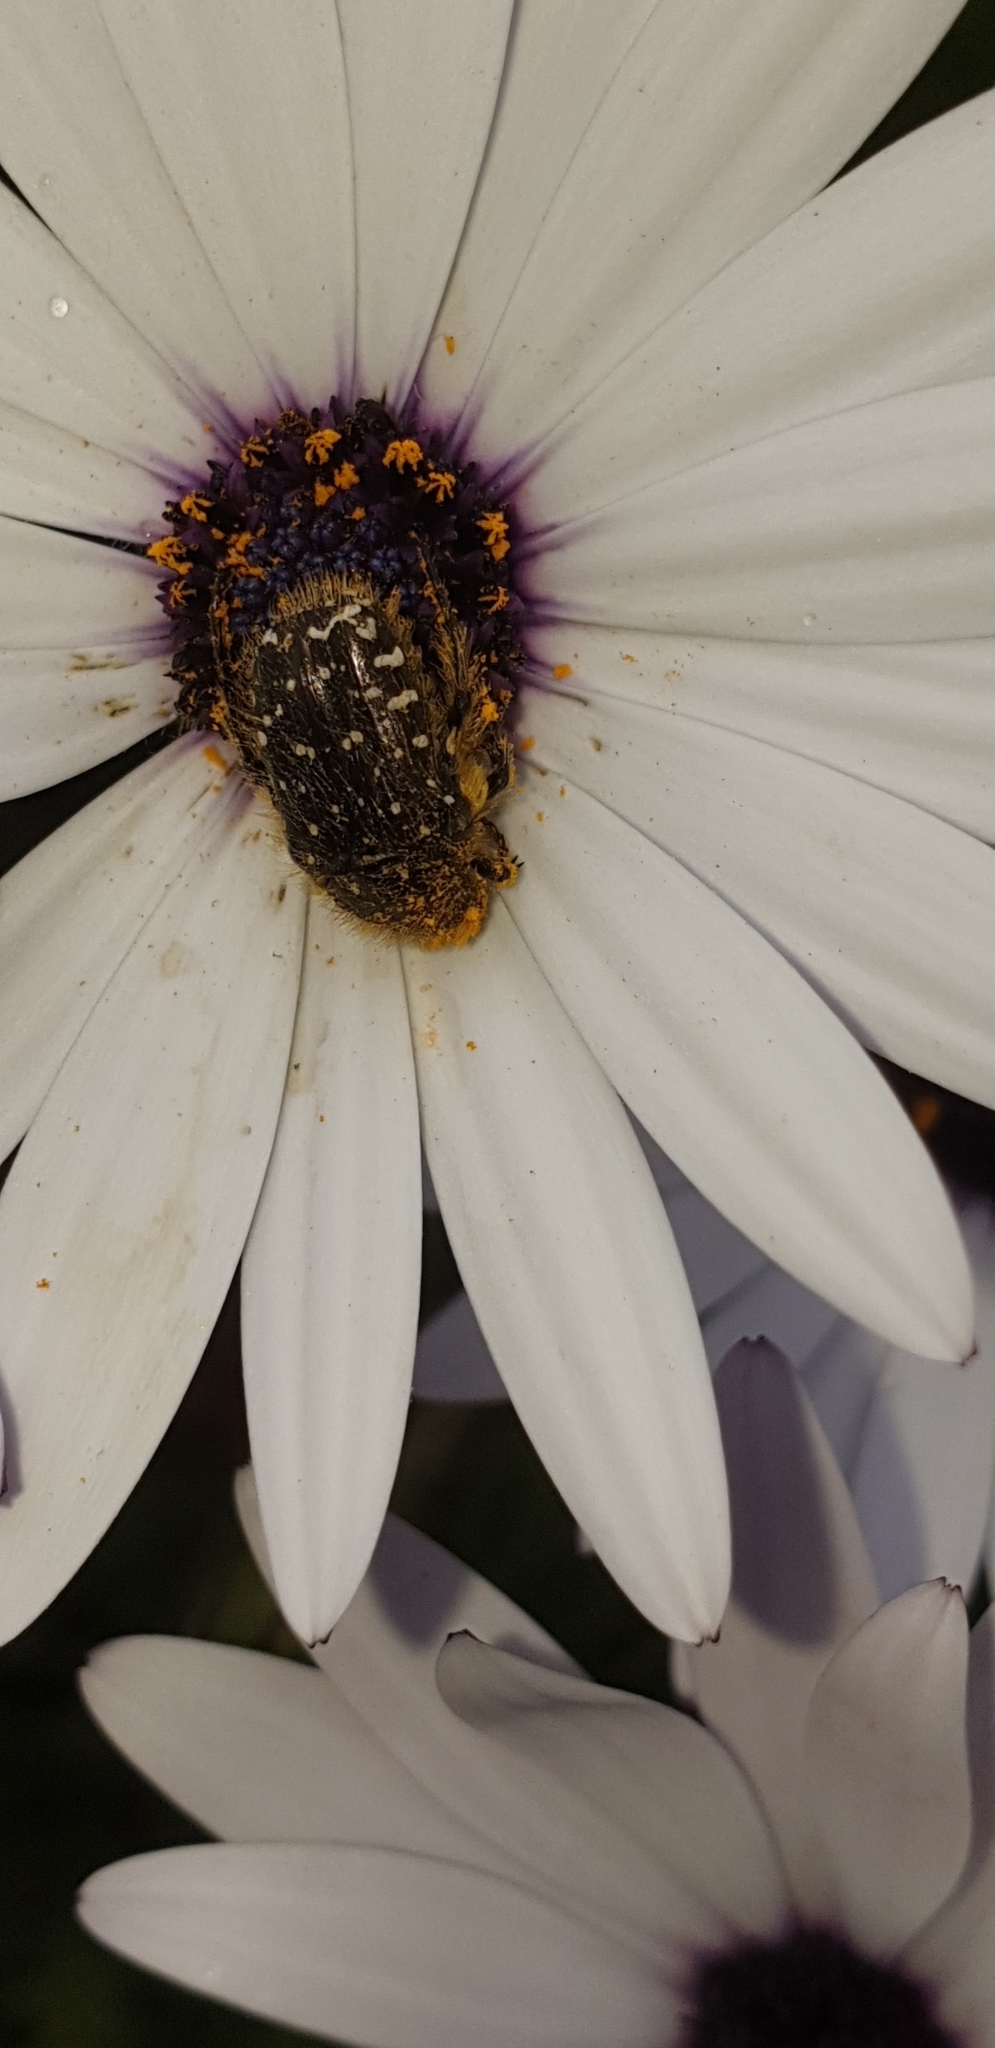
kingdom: Animalia
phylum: Arthropoda
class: Insecta
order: Coleoptera
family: Scarabaeidae
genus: Oxythyrea
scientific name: Oxythyrea funesta
